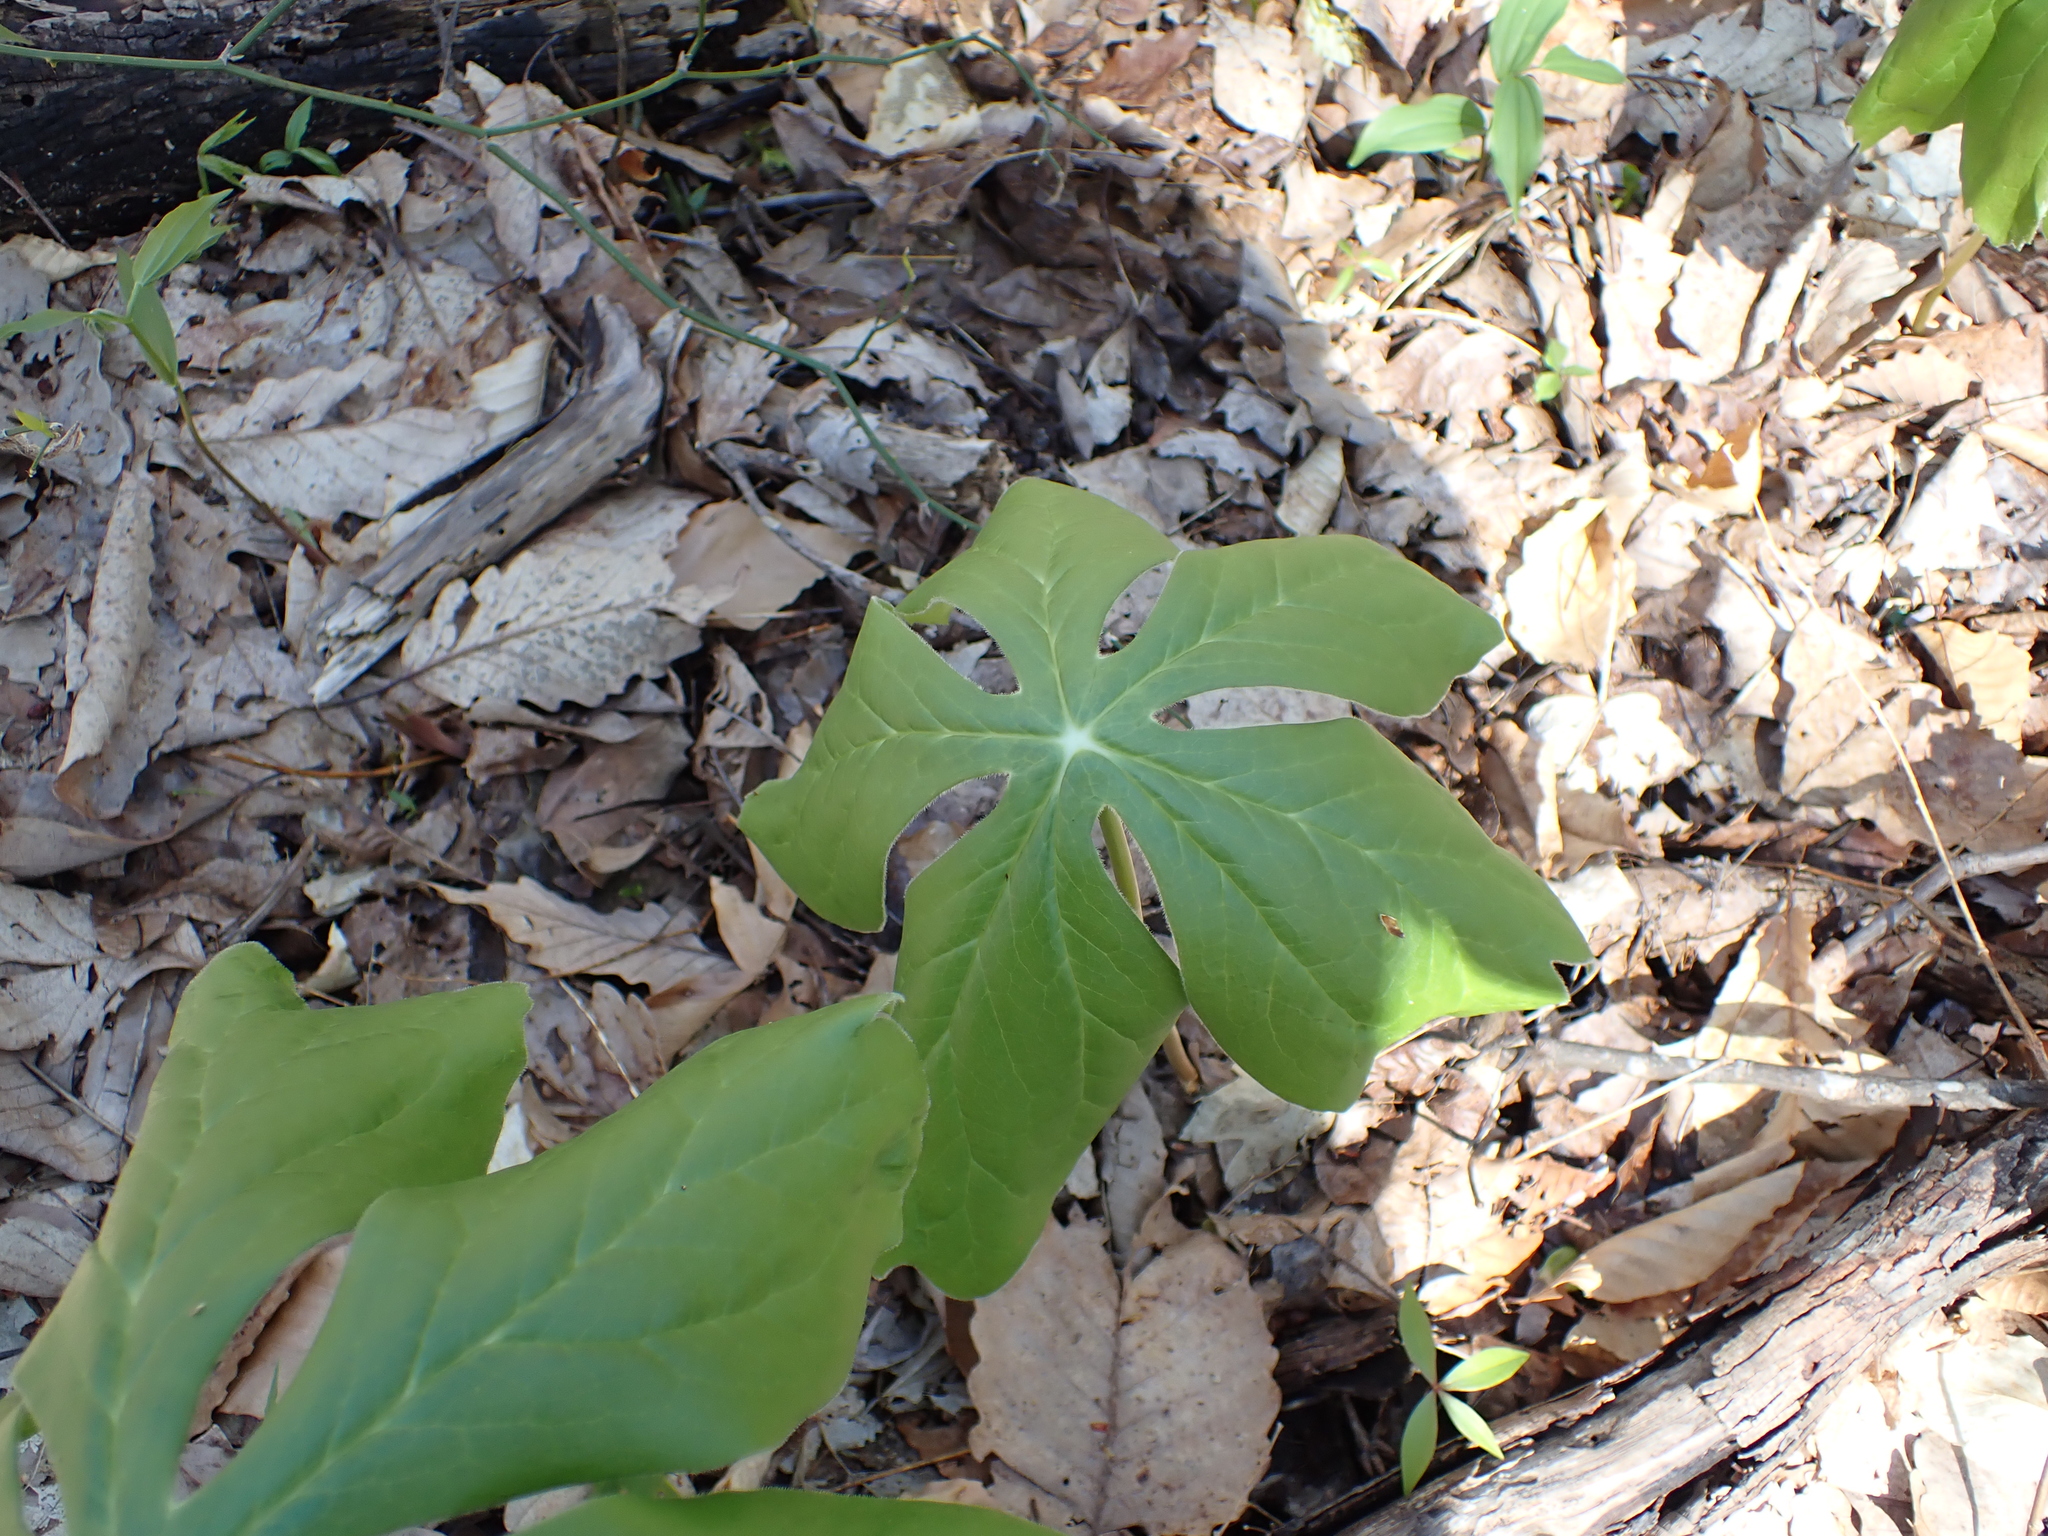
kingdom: Plantae
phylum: Tracheophyta
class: Magnoliopsida
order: Ranunculales
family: Berberidaceae
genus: Podophyllum
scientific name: Podophyllum peltatum
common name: Wild mandrake
